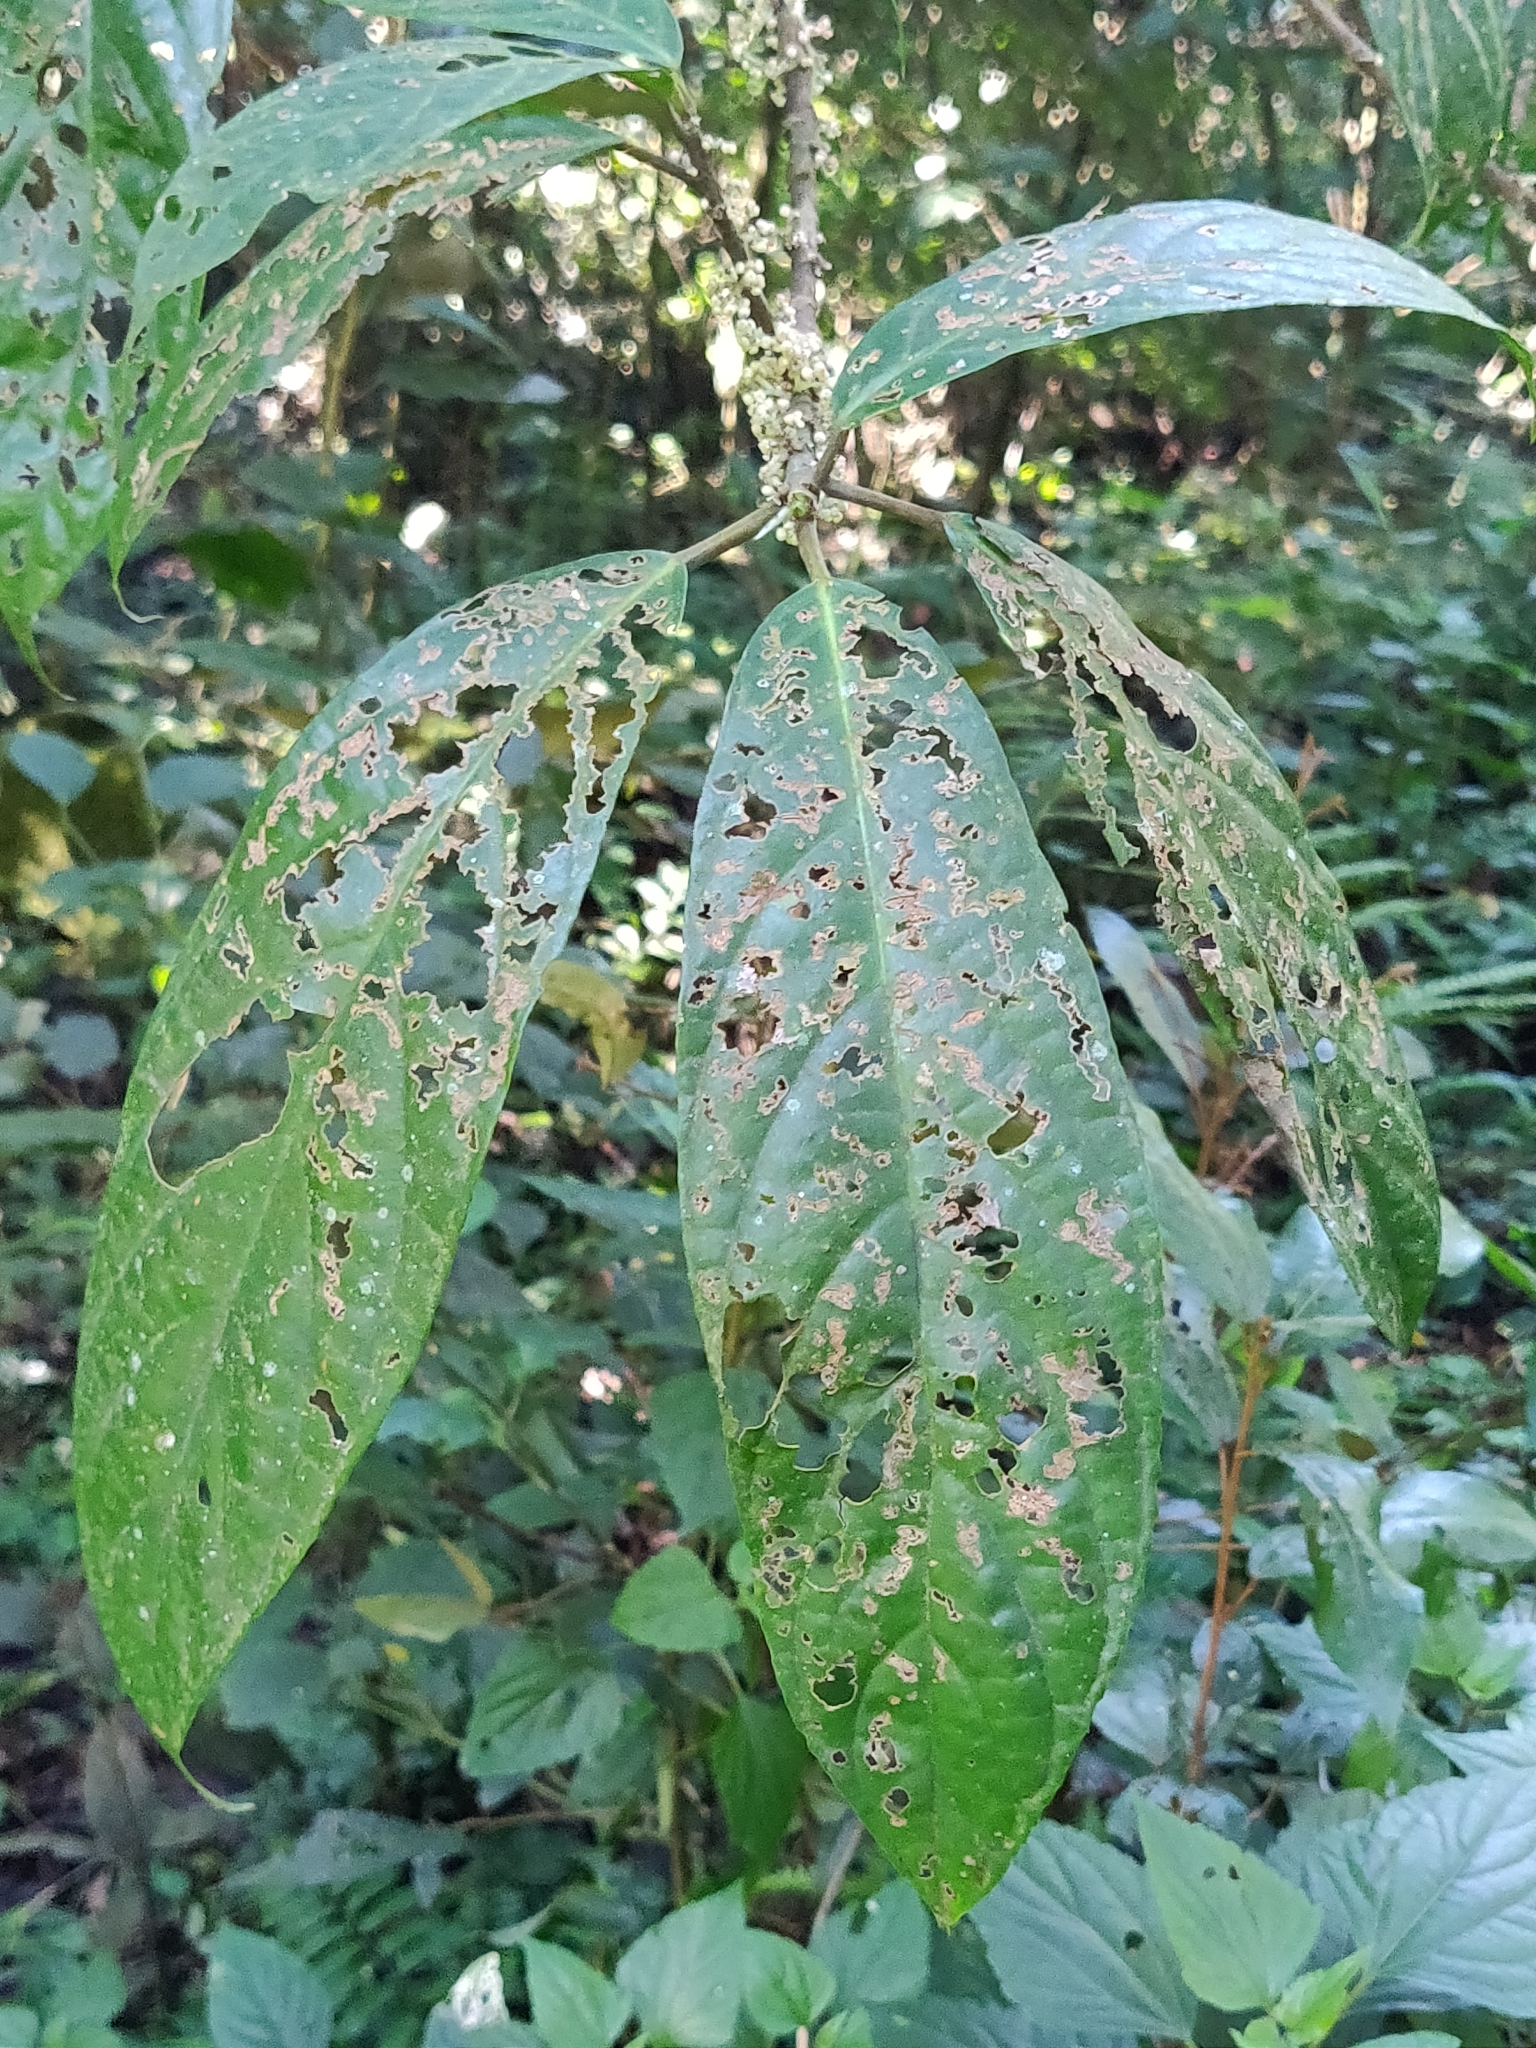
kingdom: Plantae
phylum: Tracheophyta
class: Magnoliopsida
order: Rosales
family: Urticaceae
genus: Oreocnide
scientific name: Oreocnide integrifolia
